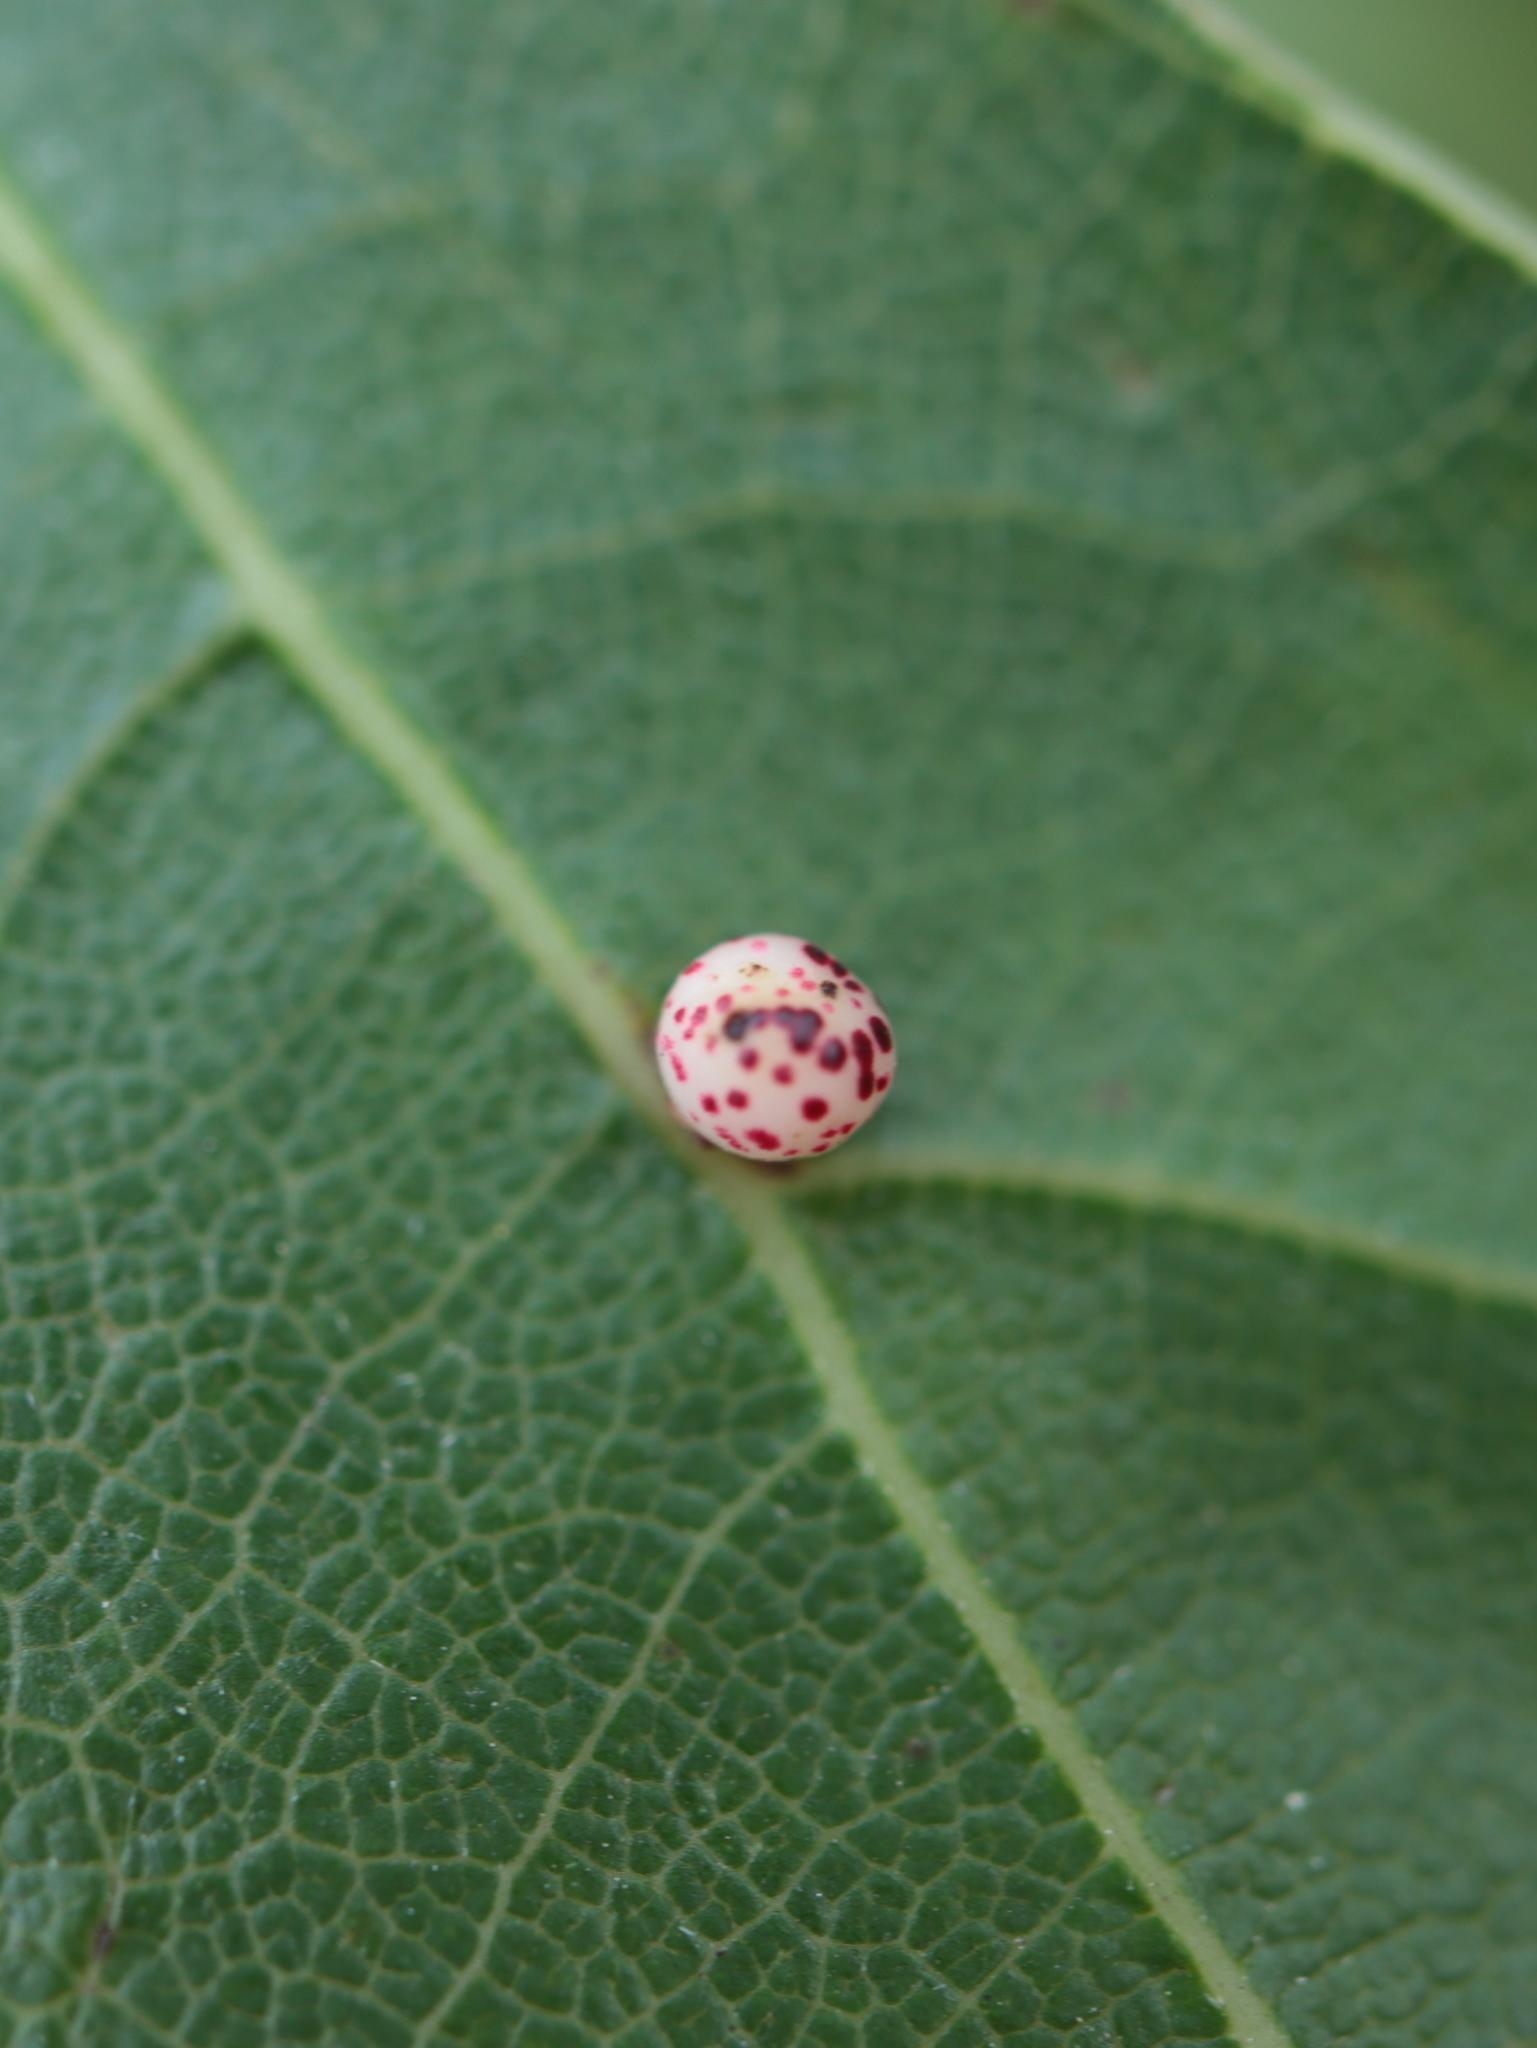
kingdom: Animalia
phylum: Arthropoda
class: Insecta
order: Hymenoptera
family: Cynipidae
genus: Zopheroteras
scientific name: Zopheroteras
